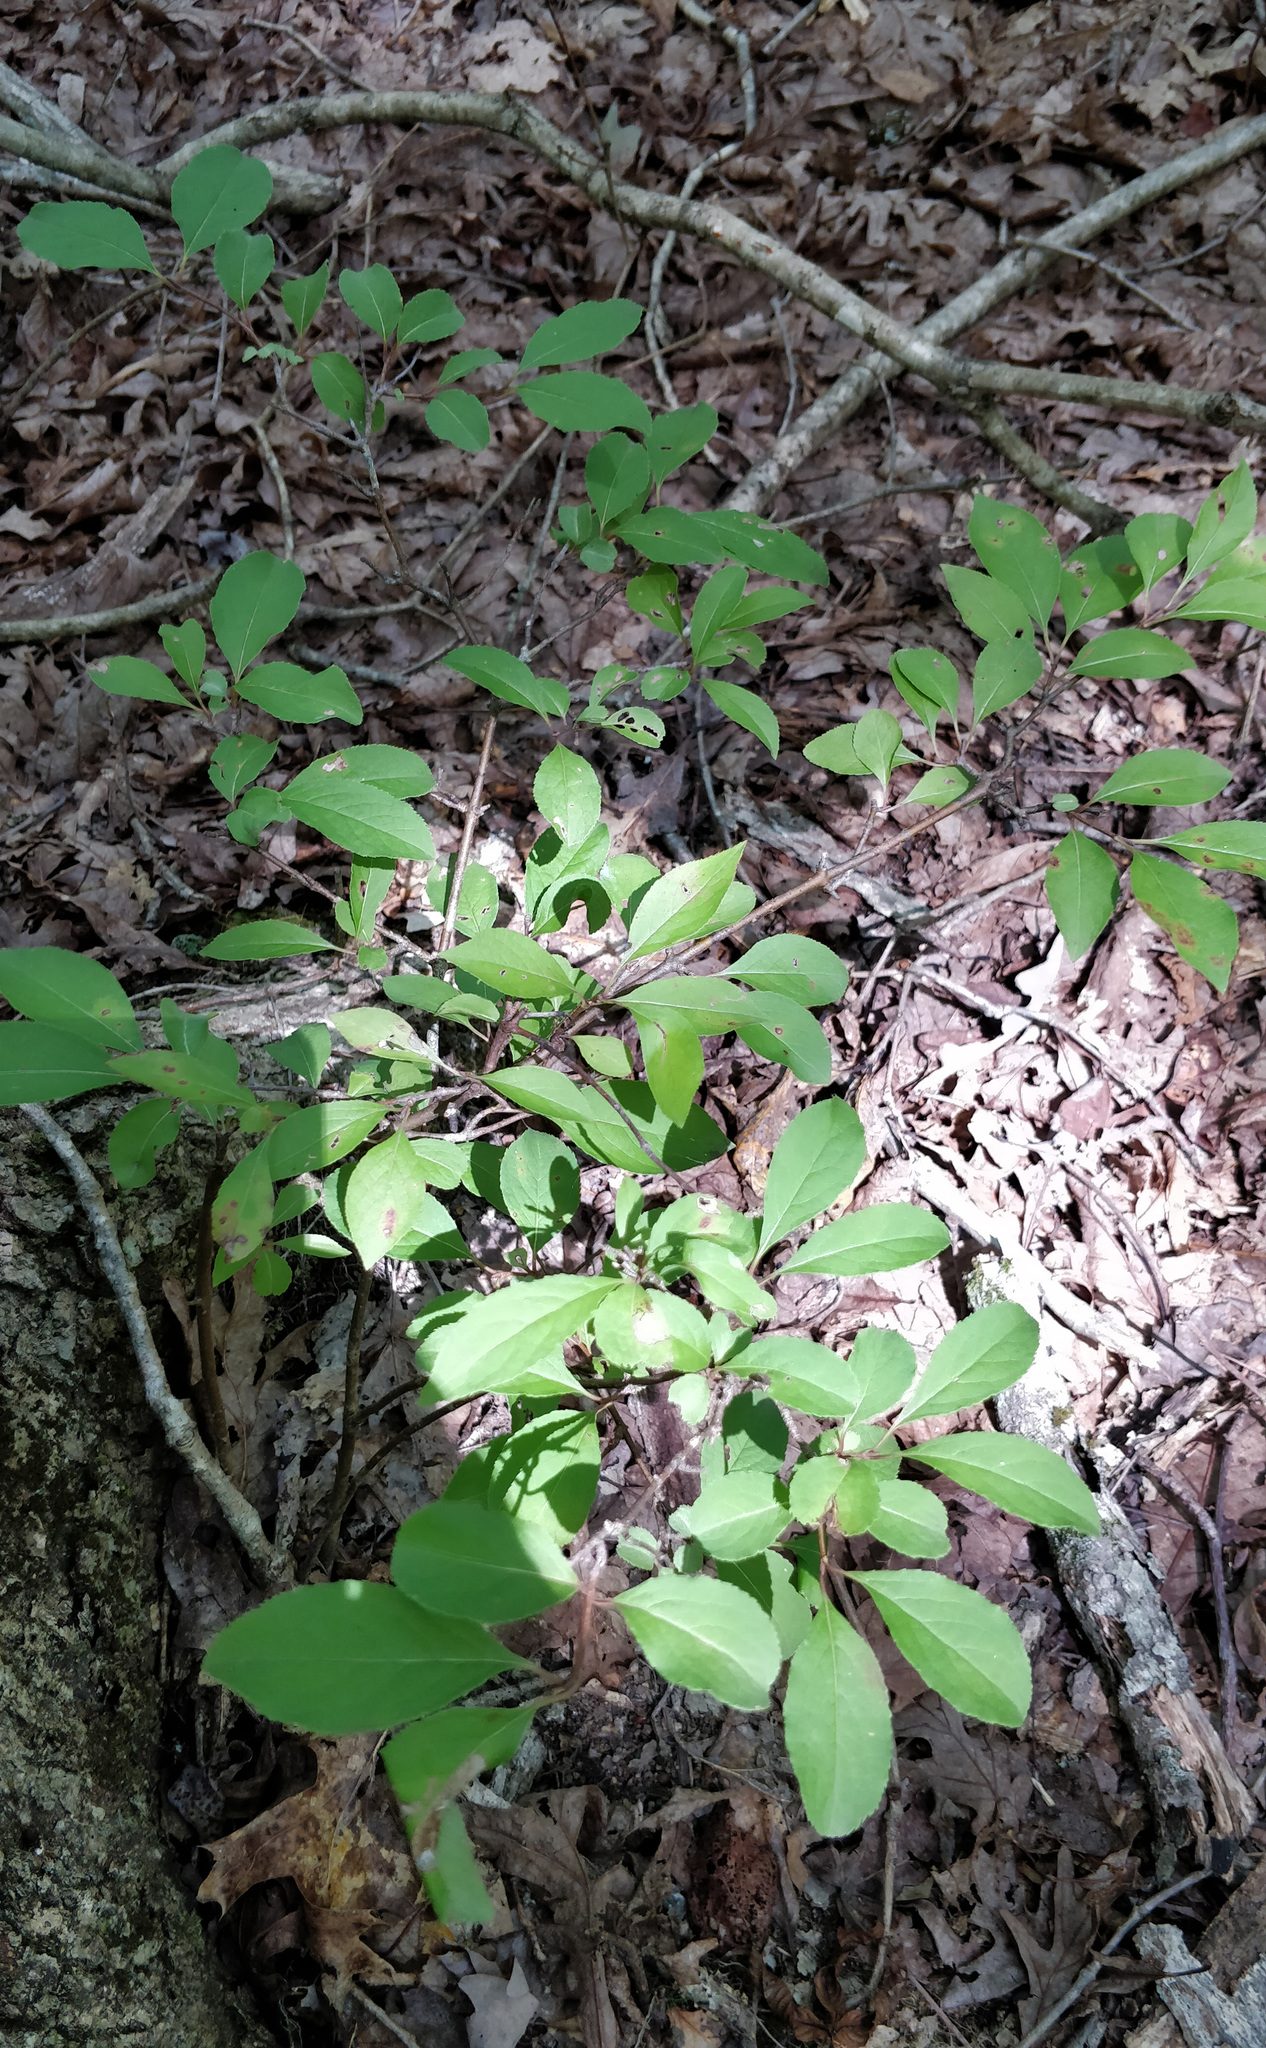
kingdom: Plantae
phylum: Tracheophyta
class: Magnoliopsida
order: Dipsacales
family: Viburnaceae
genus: Viburnum
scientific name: Viburnum prunifolium
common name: Black haw
